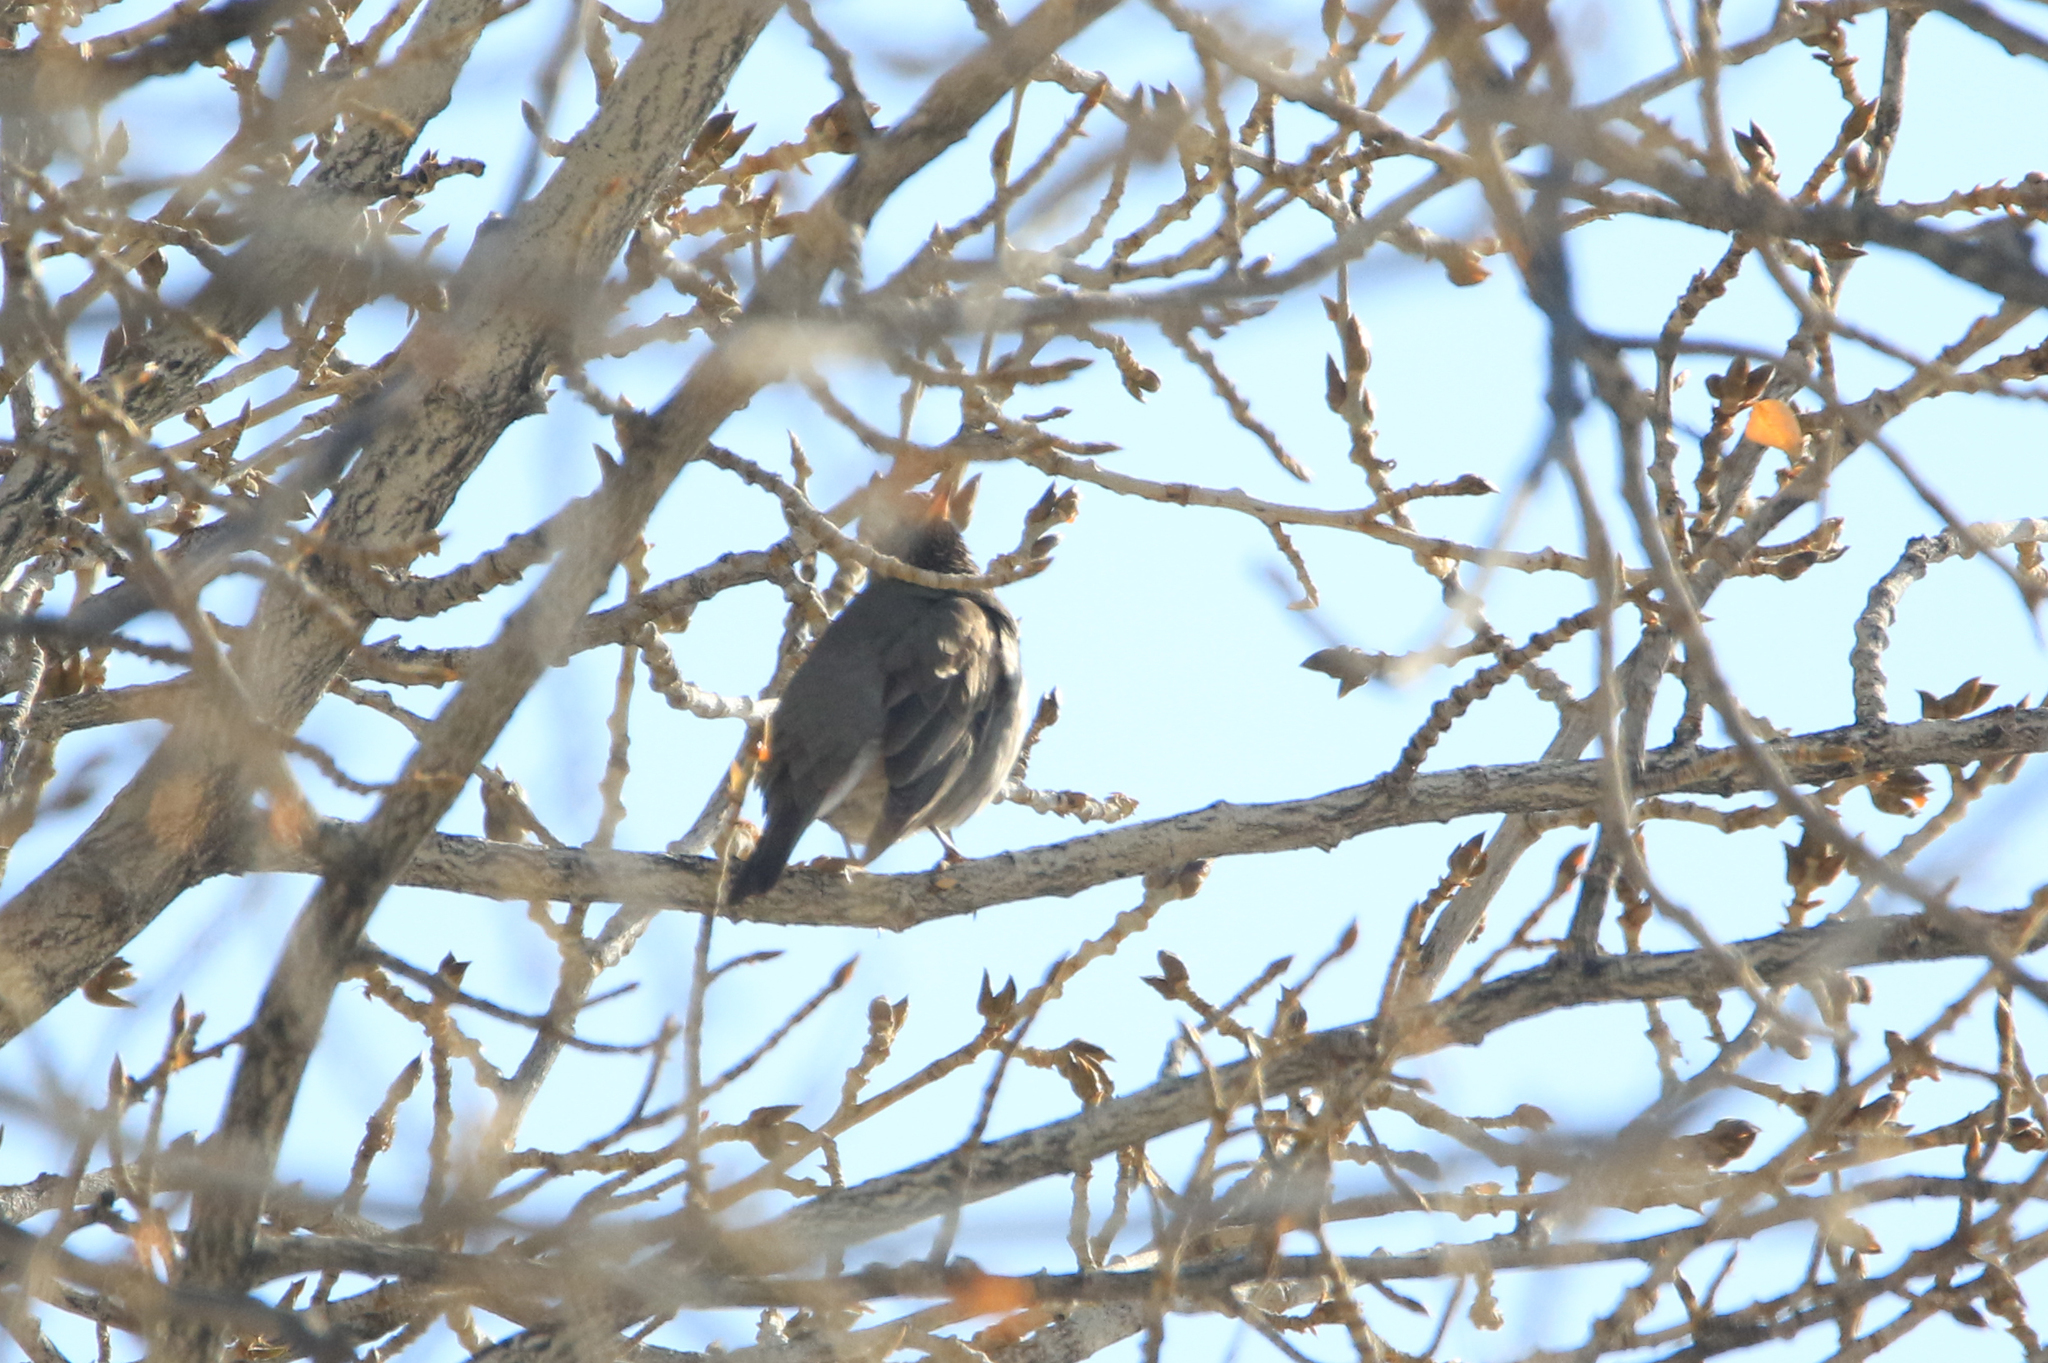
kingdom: Animalia
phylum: Chordata
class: Aves
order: Passeriformes
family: Turdidae
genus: Turdus
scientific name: Turdus atrogularis
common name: Black-throated thrush
